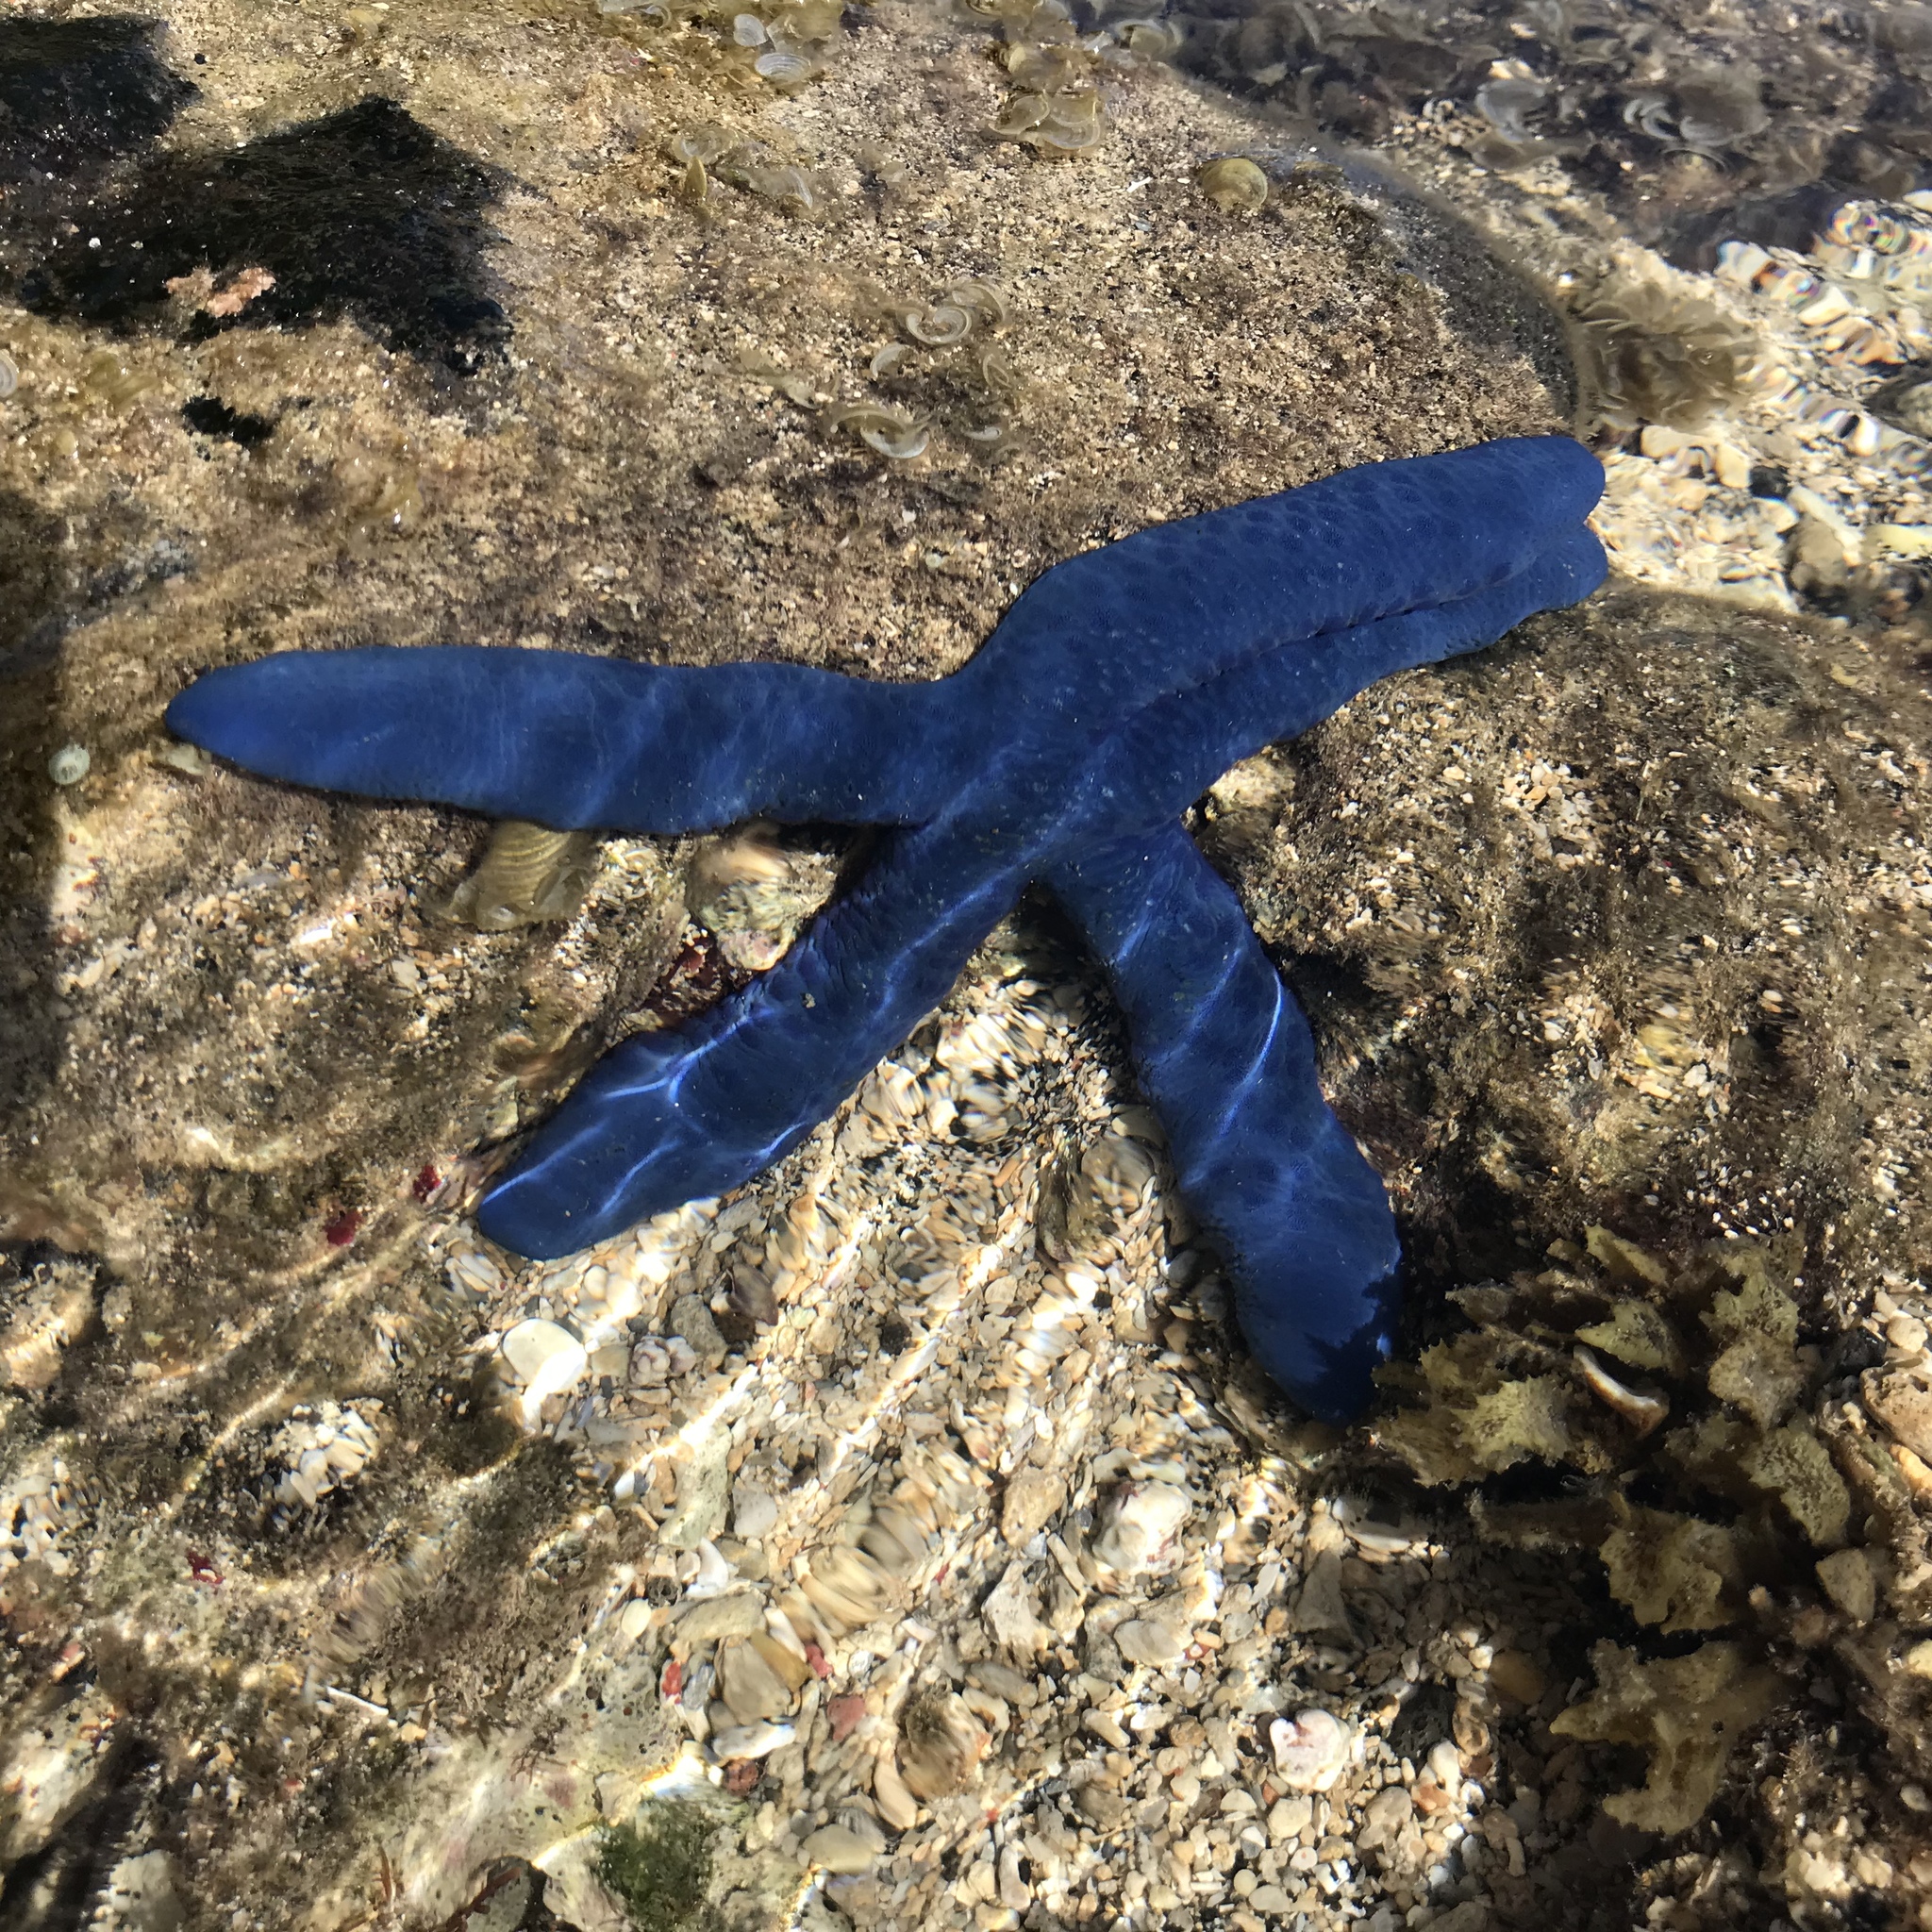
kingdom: Animalia
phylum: Echinodermata
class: Asteroidea
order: Valvatida
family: Ophidiasteridae
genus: Linckia
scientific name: Linckia laevigata
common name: Azure sea star
